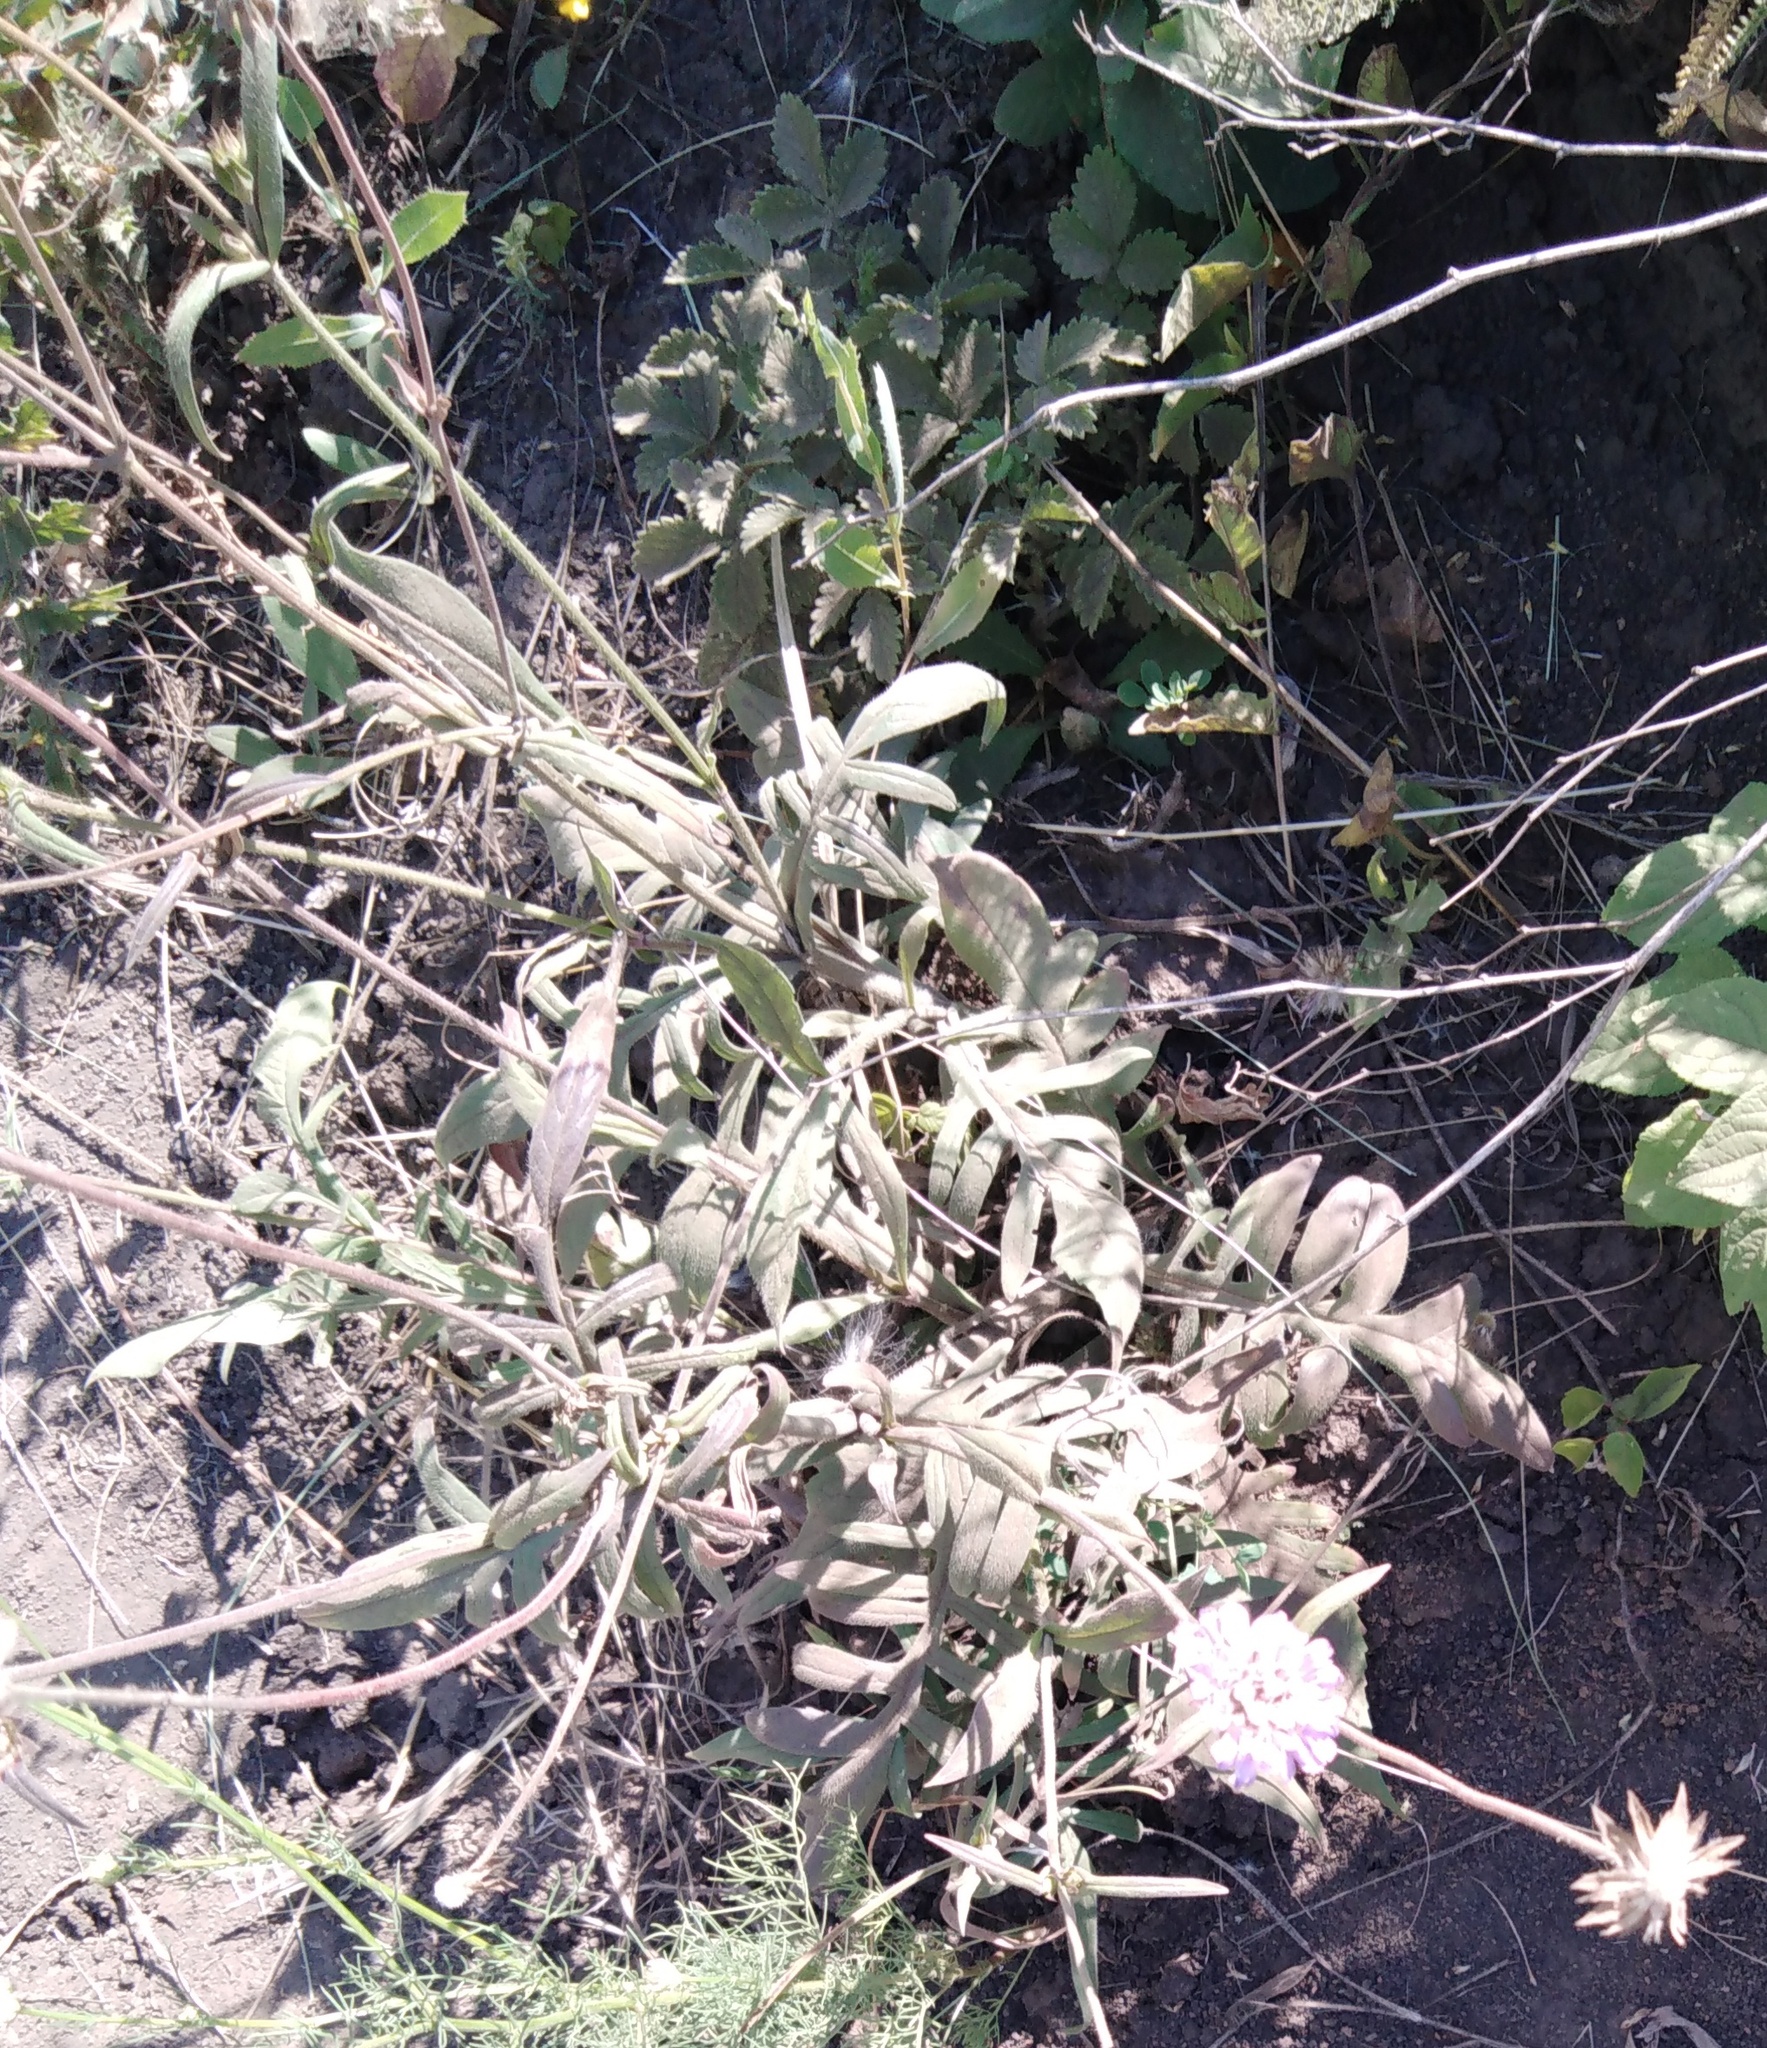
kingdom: Plantae
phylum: Tracheophyta
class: Magnoliopsida
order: Dipsacales
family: Caprifoliaceae
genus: Knautia
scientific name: Knautia arvensis
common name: Field scabiosa
